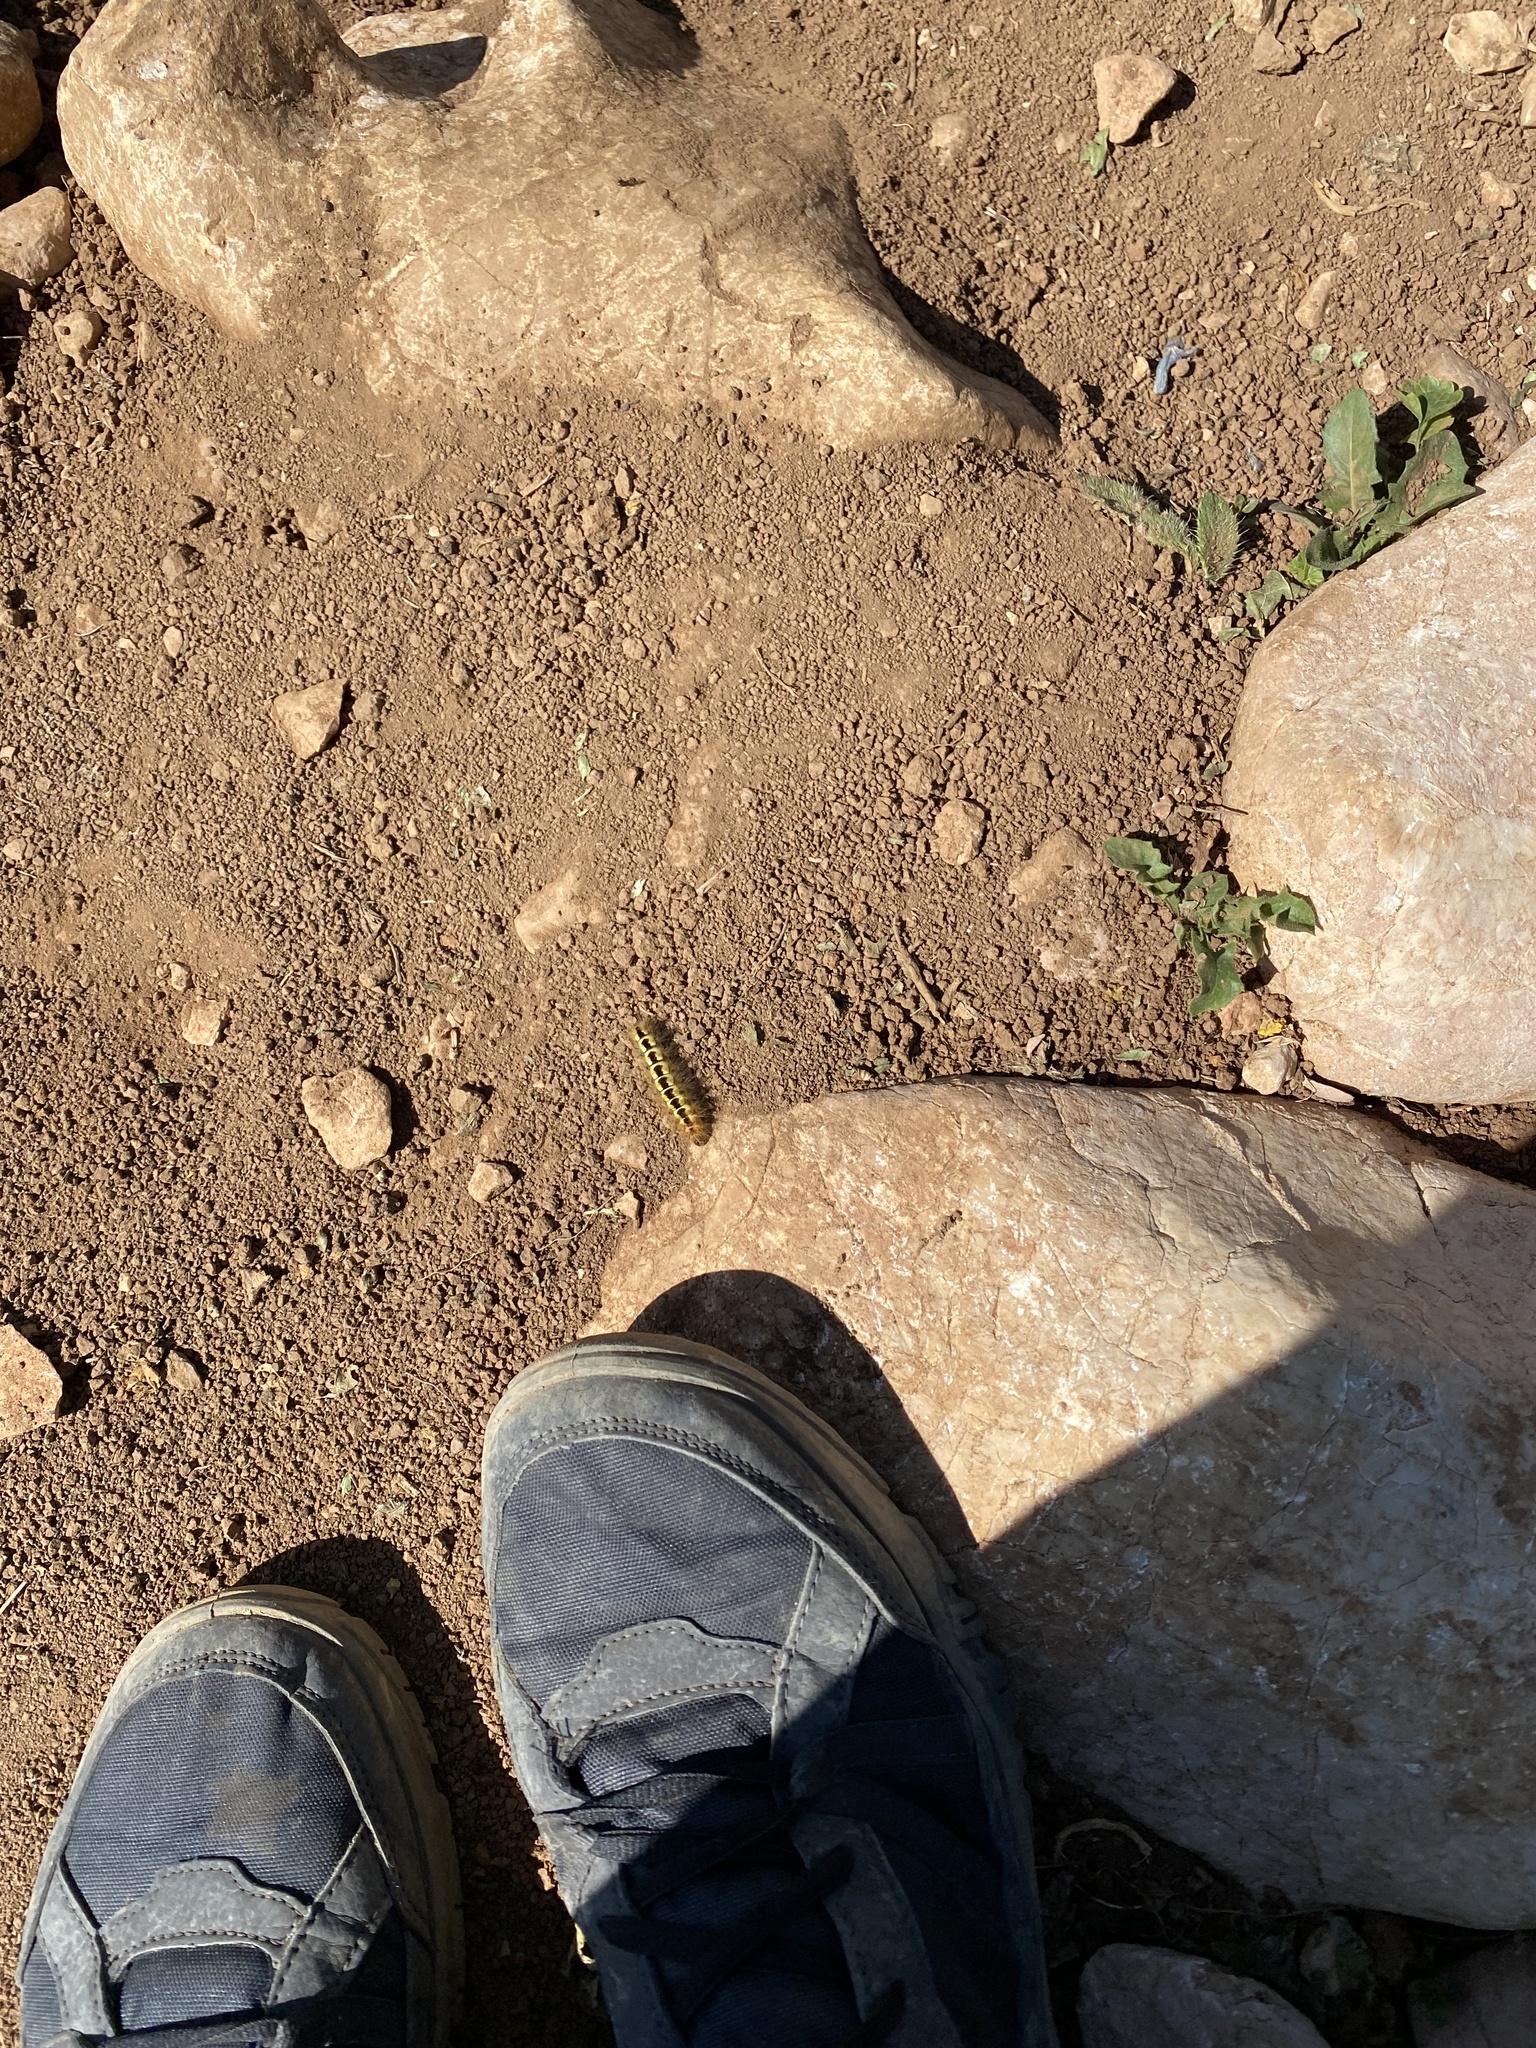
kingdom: Animalia
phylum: Arthropoda
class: Insecta
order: Lepidoptera
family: Noctuidae
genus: Acronicta
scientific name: Acronicta euphorbiae
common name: Sweet gale moth
